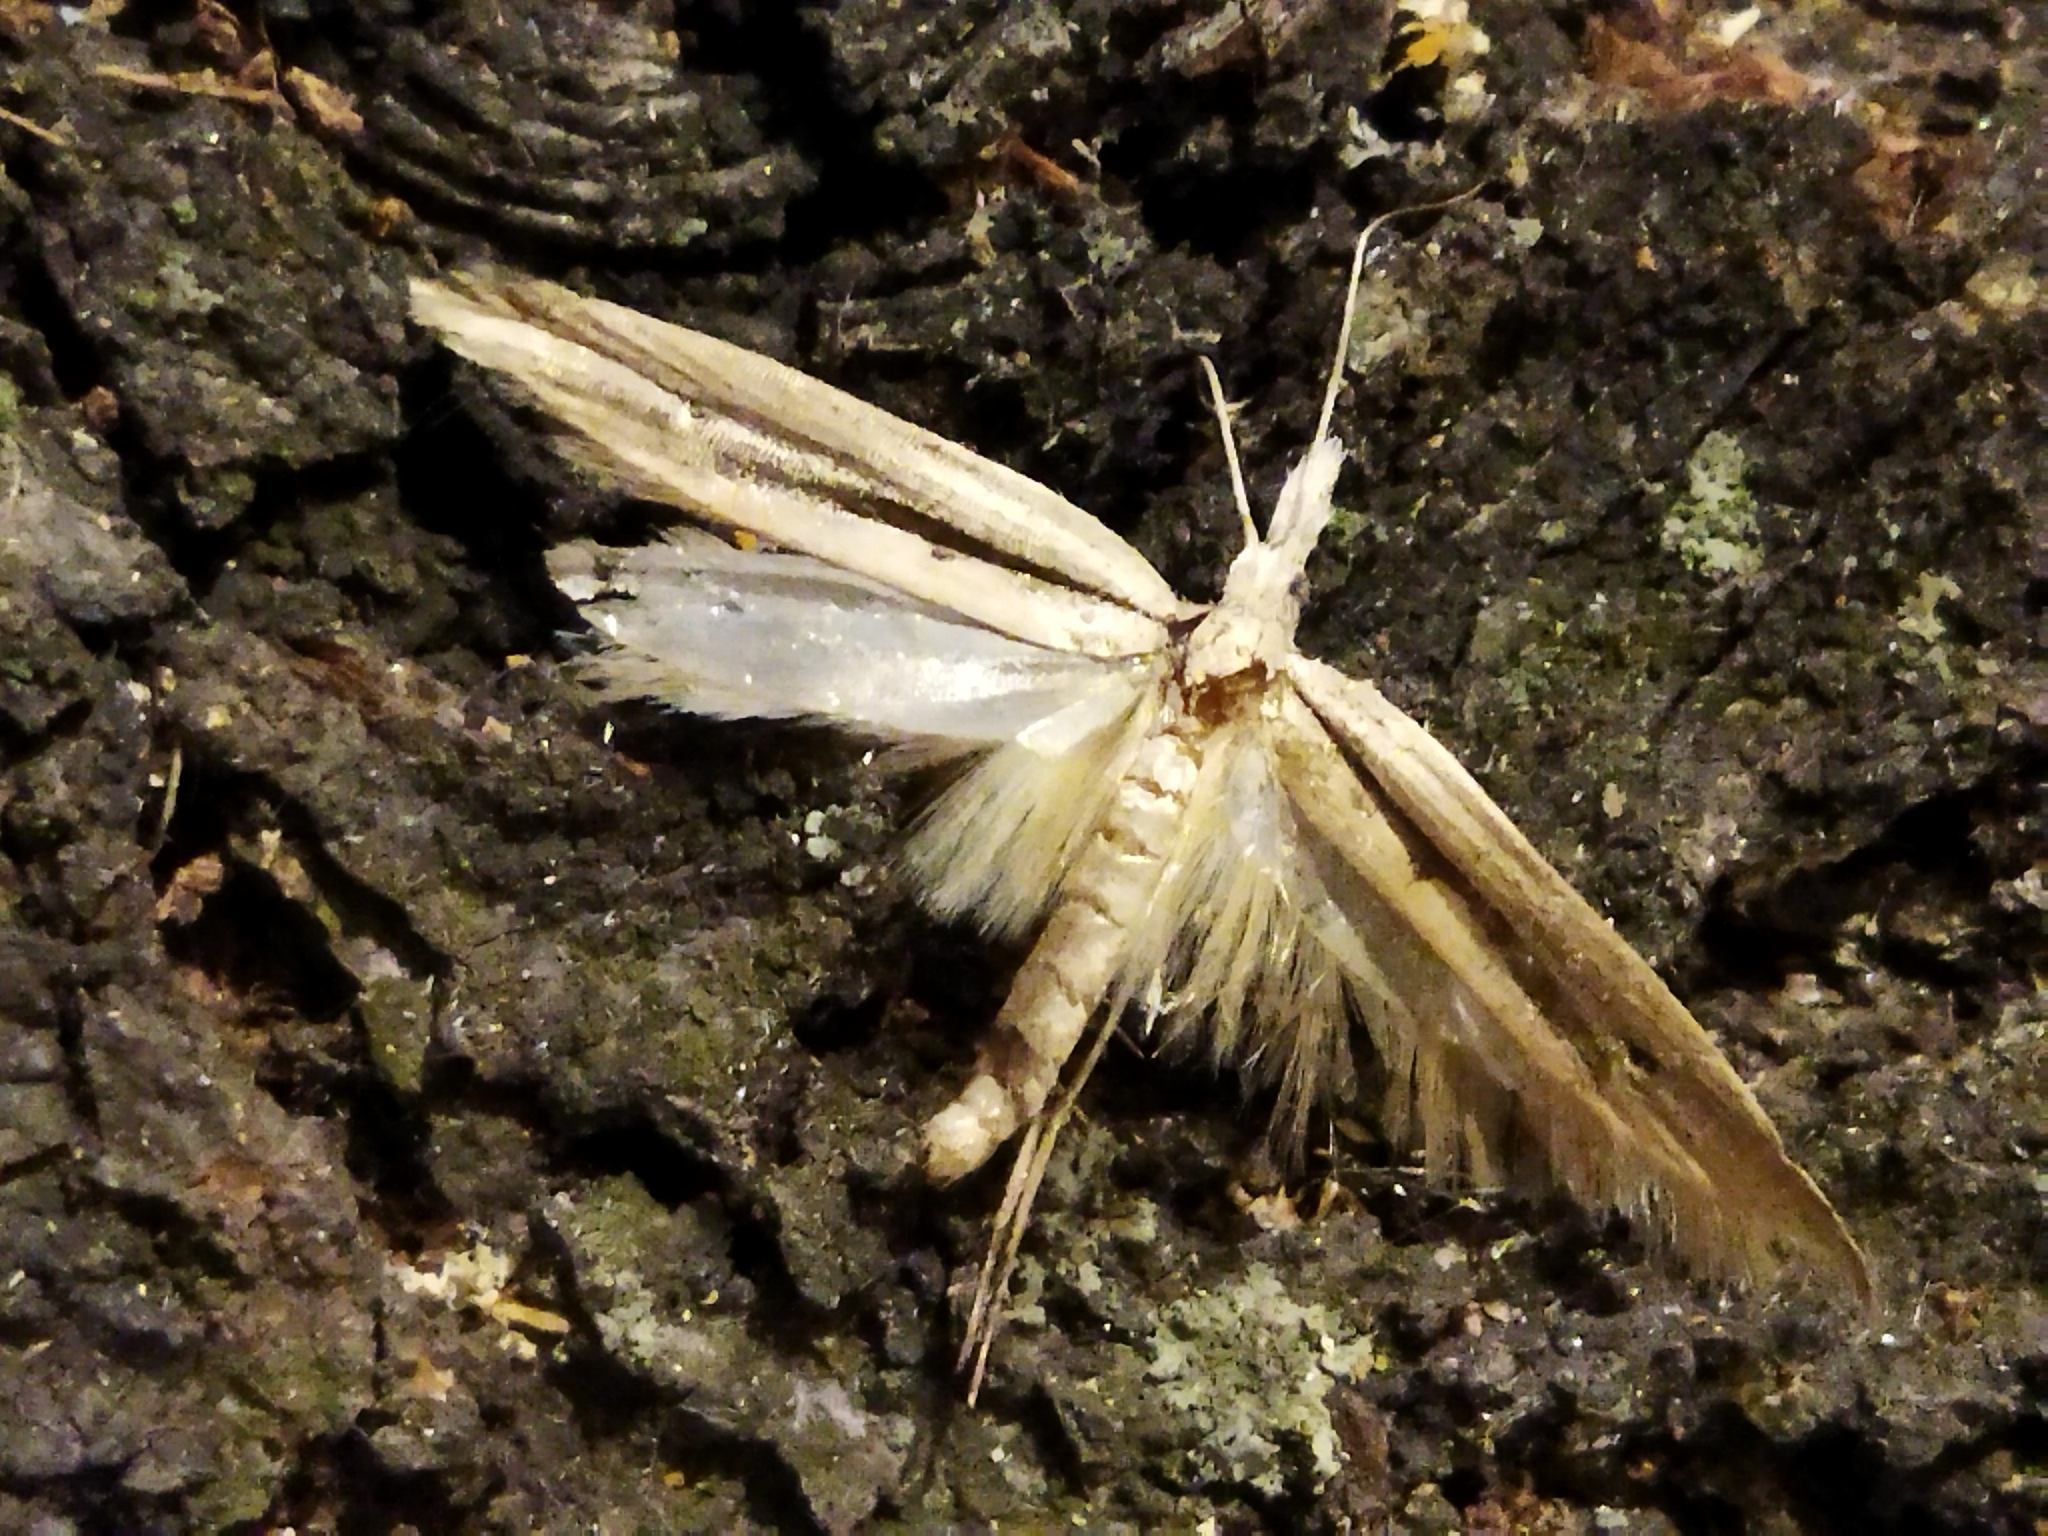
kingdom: Animalia
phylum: Arthropoda
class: Insecta
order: Lepidoptera
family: Ypsolophidae
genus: Ypsolopha
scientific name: Ypsolopha mucronella
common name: Spindle smudge
